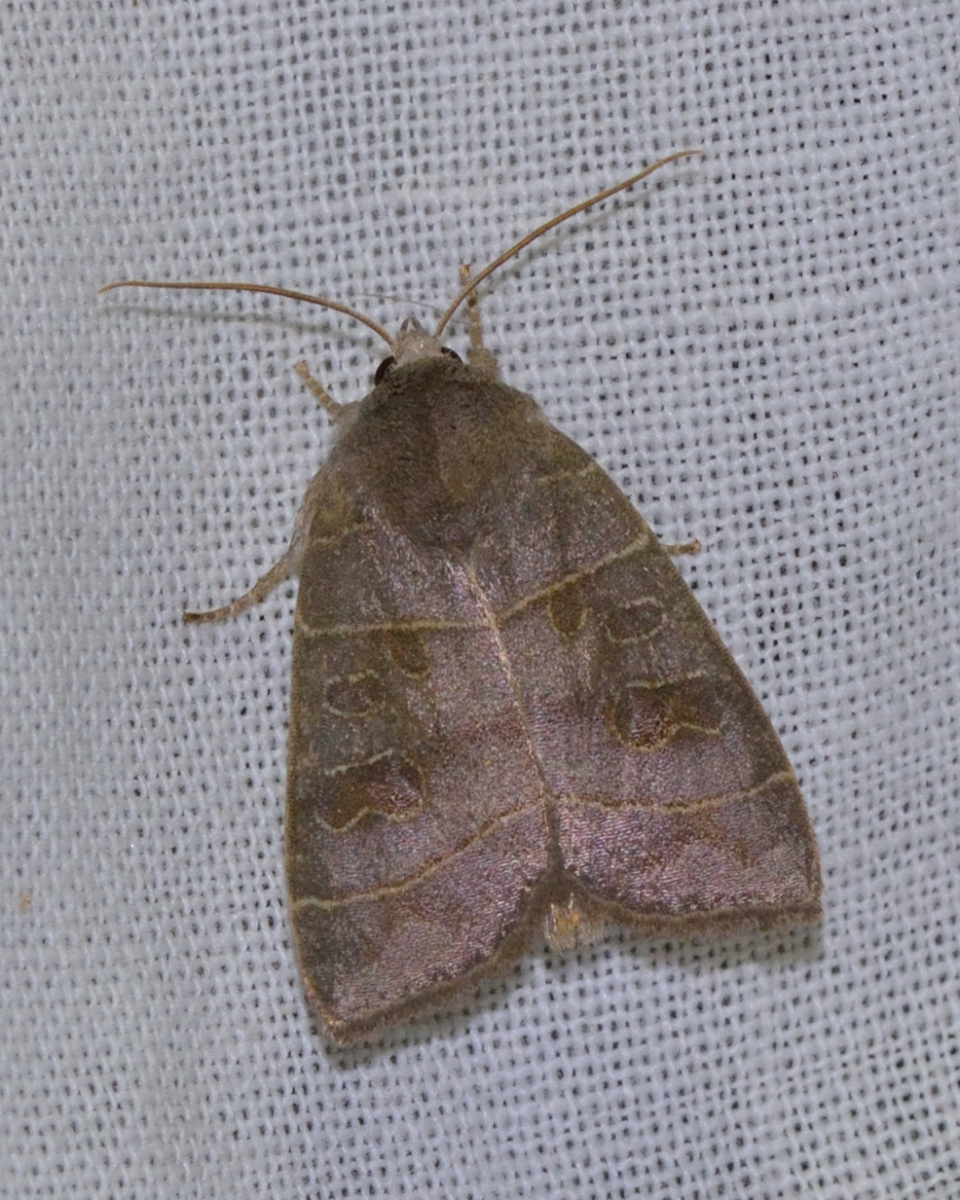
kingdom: Animalia
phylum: Arthropoda
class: Insecta
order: Lepidoptera
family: Noctuidae
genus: Ipimorpha
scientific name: Ipimorpha subtusa
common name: Olive
